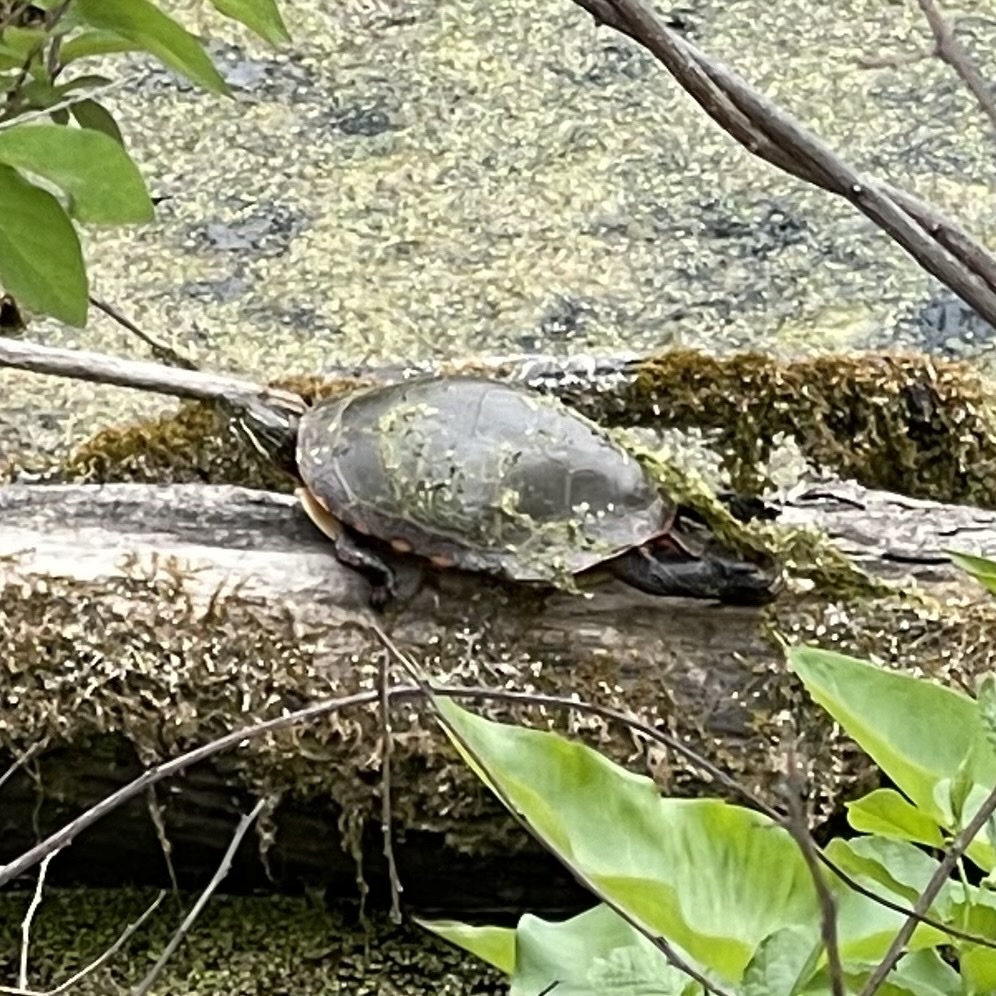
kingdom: Animalia
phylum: Chordata
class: Testudines
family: Emydidae
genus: Chrysemys
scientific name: Chrysemys picta
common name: Painted turtle
